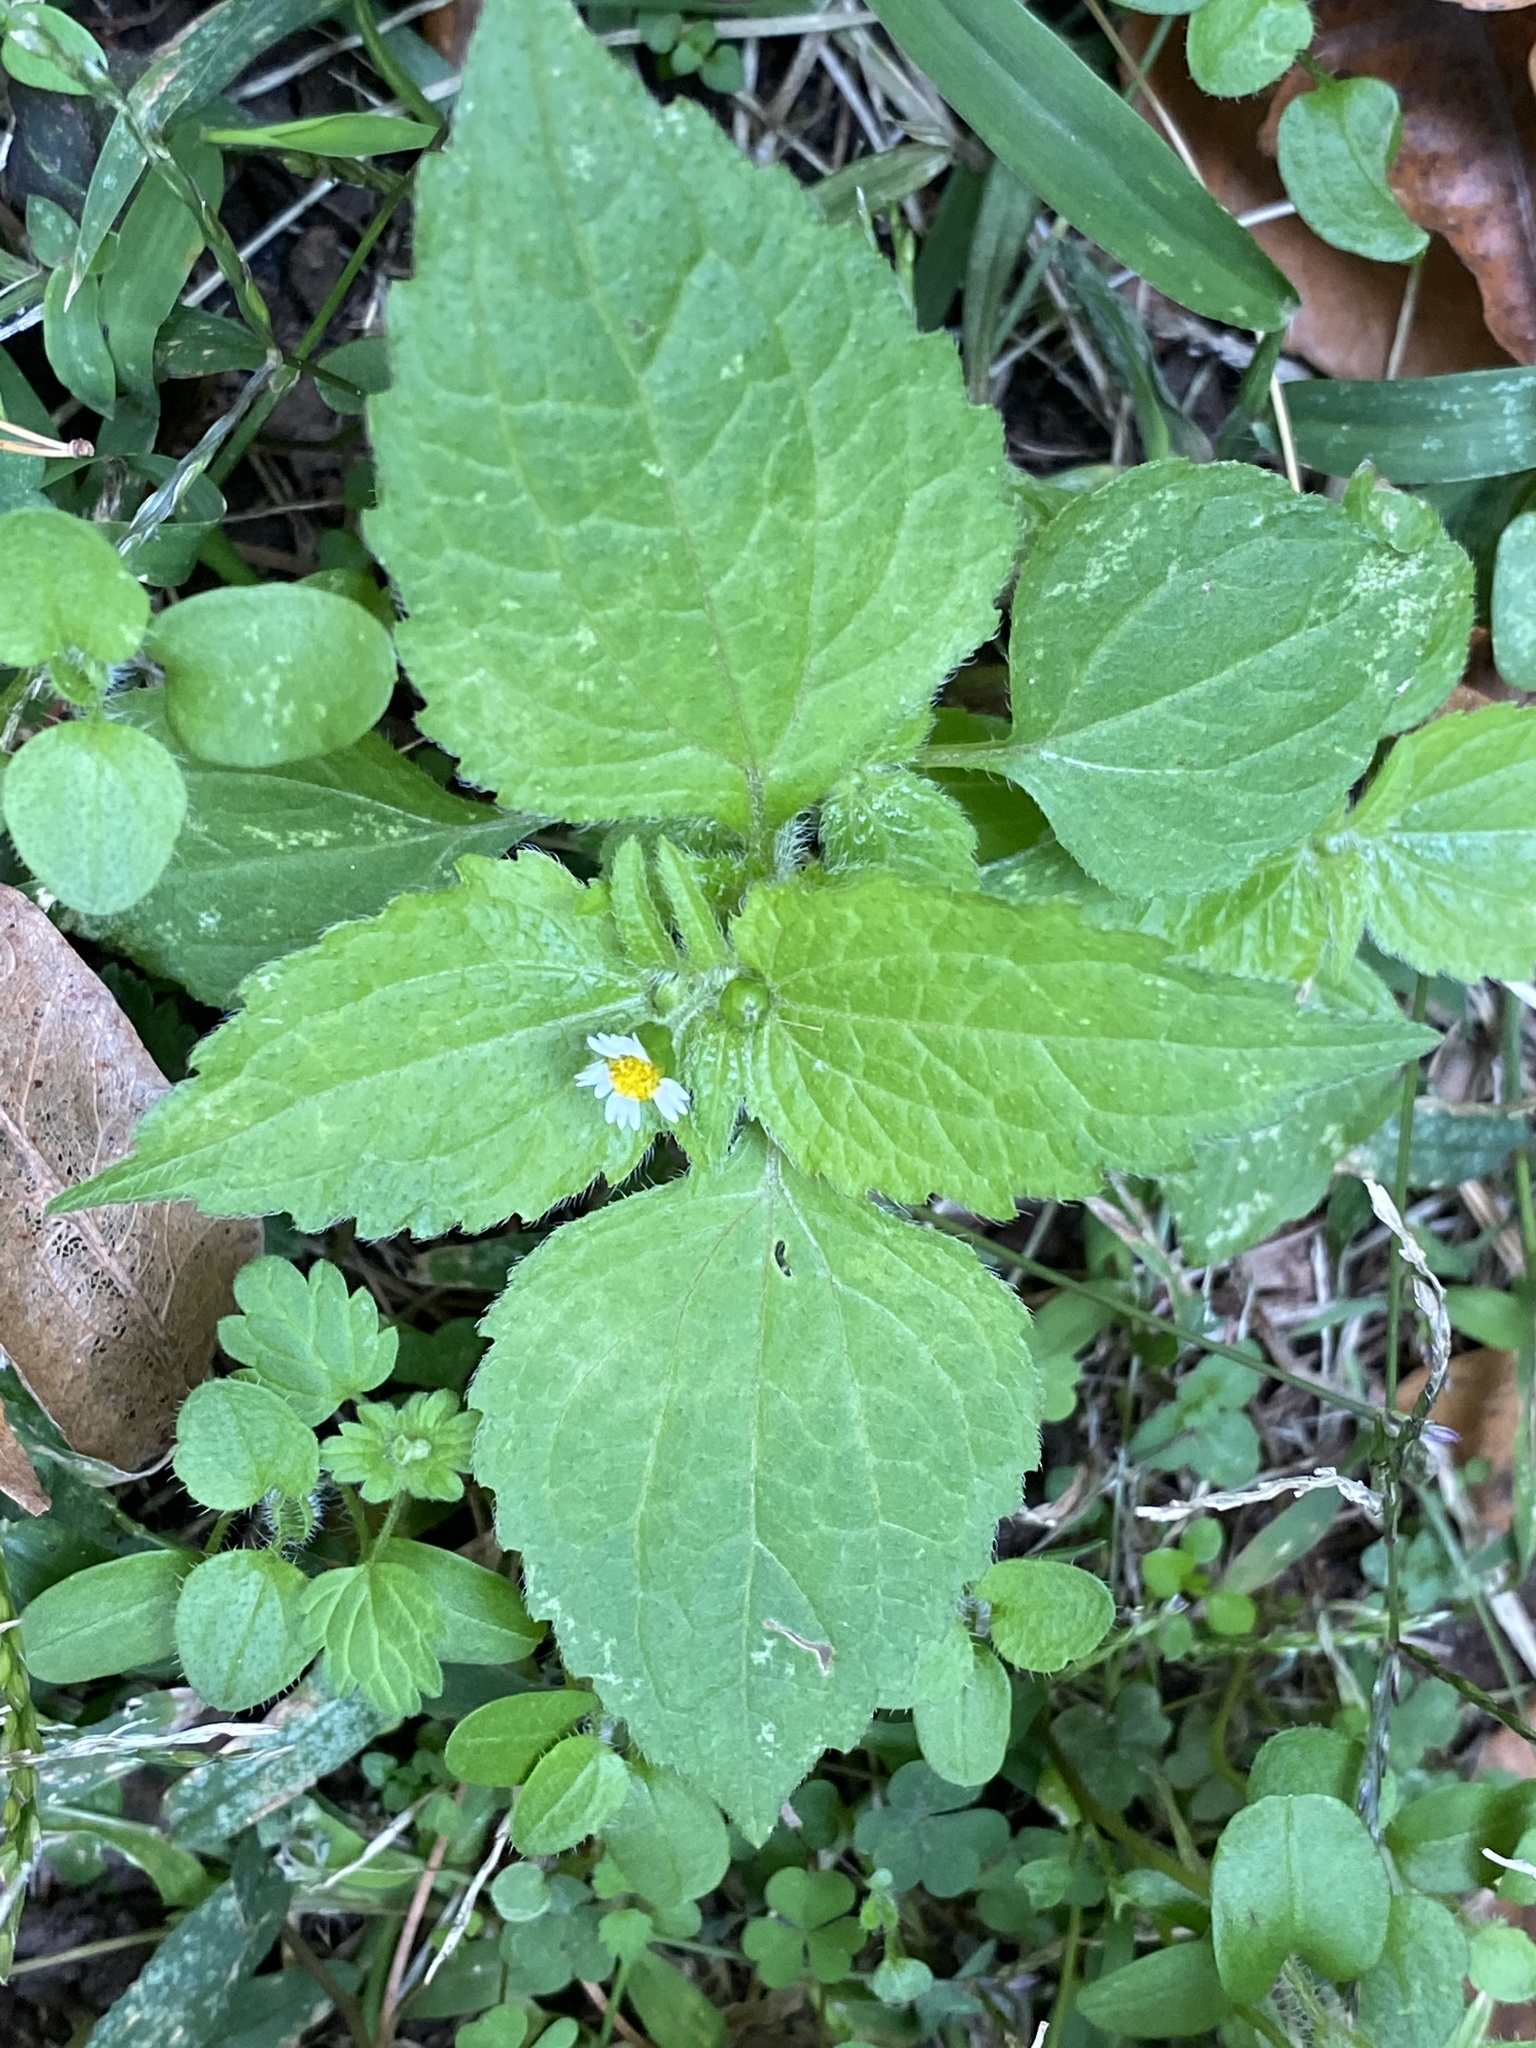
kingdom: Plantae
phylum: Tracheophyta
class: Magnoliopsida
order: Asterales
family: Asteraceae
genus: Galinsoga
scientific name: Galinsoga quadriradiata
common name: Shaggy soldier
